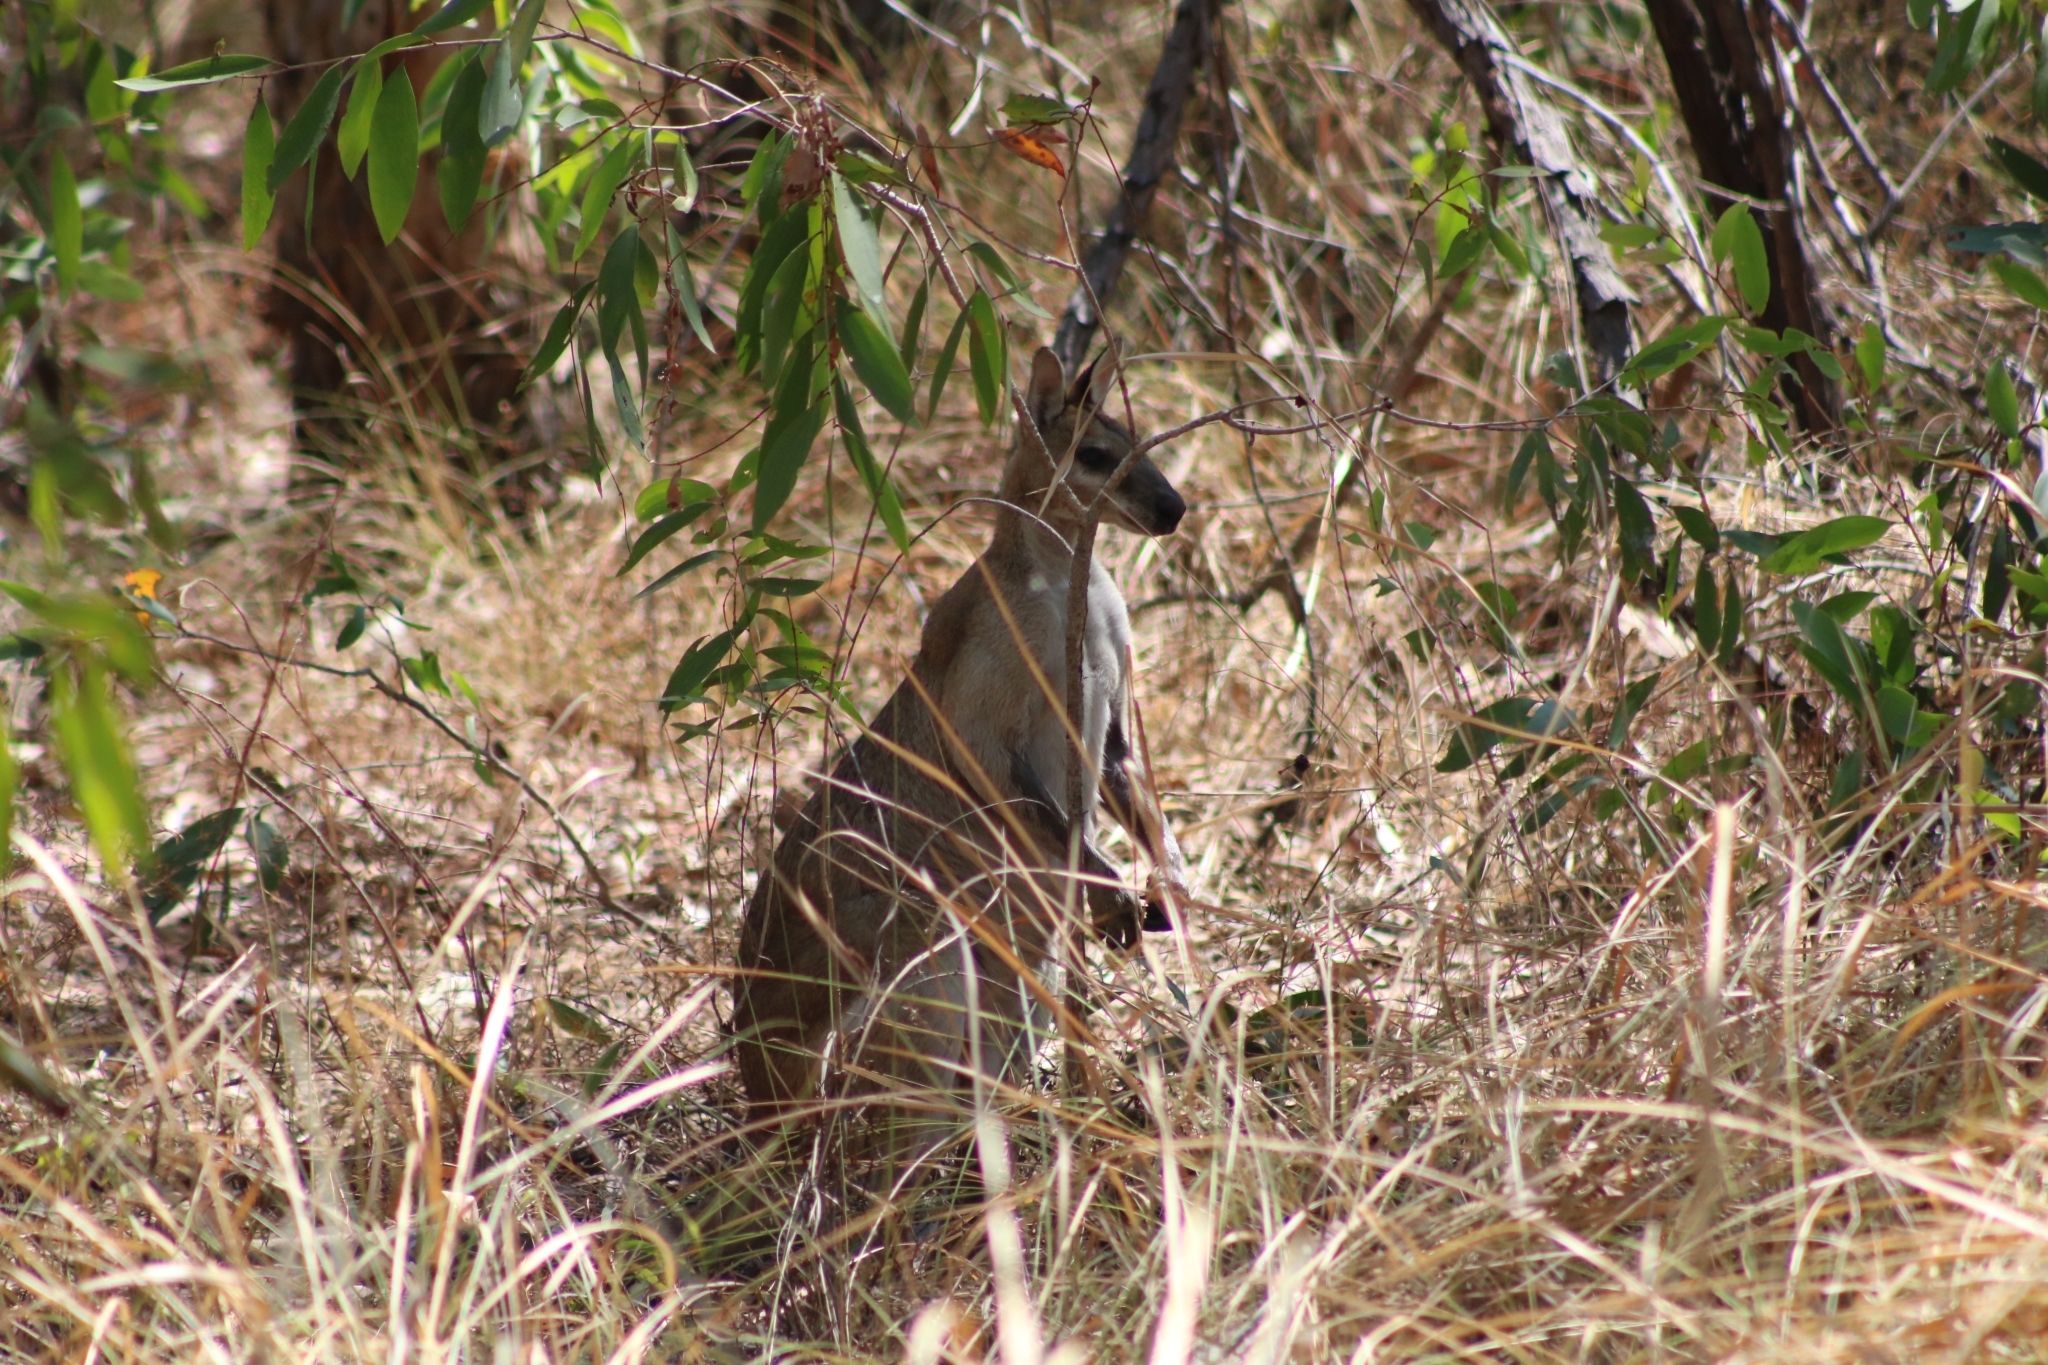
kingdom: Animalia
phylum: Chordata
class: Mammalia
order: Diprotodontia
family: Macropodidae
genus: Macropus
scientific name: Macropus agilis
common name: Agile wallaby
